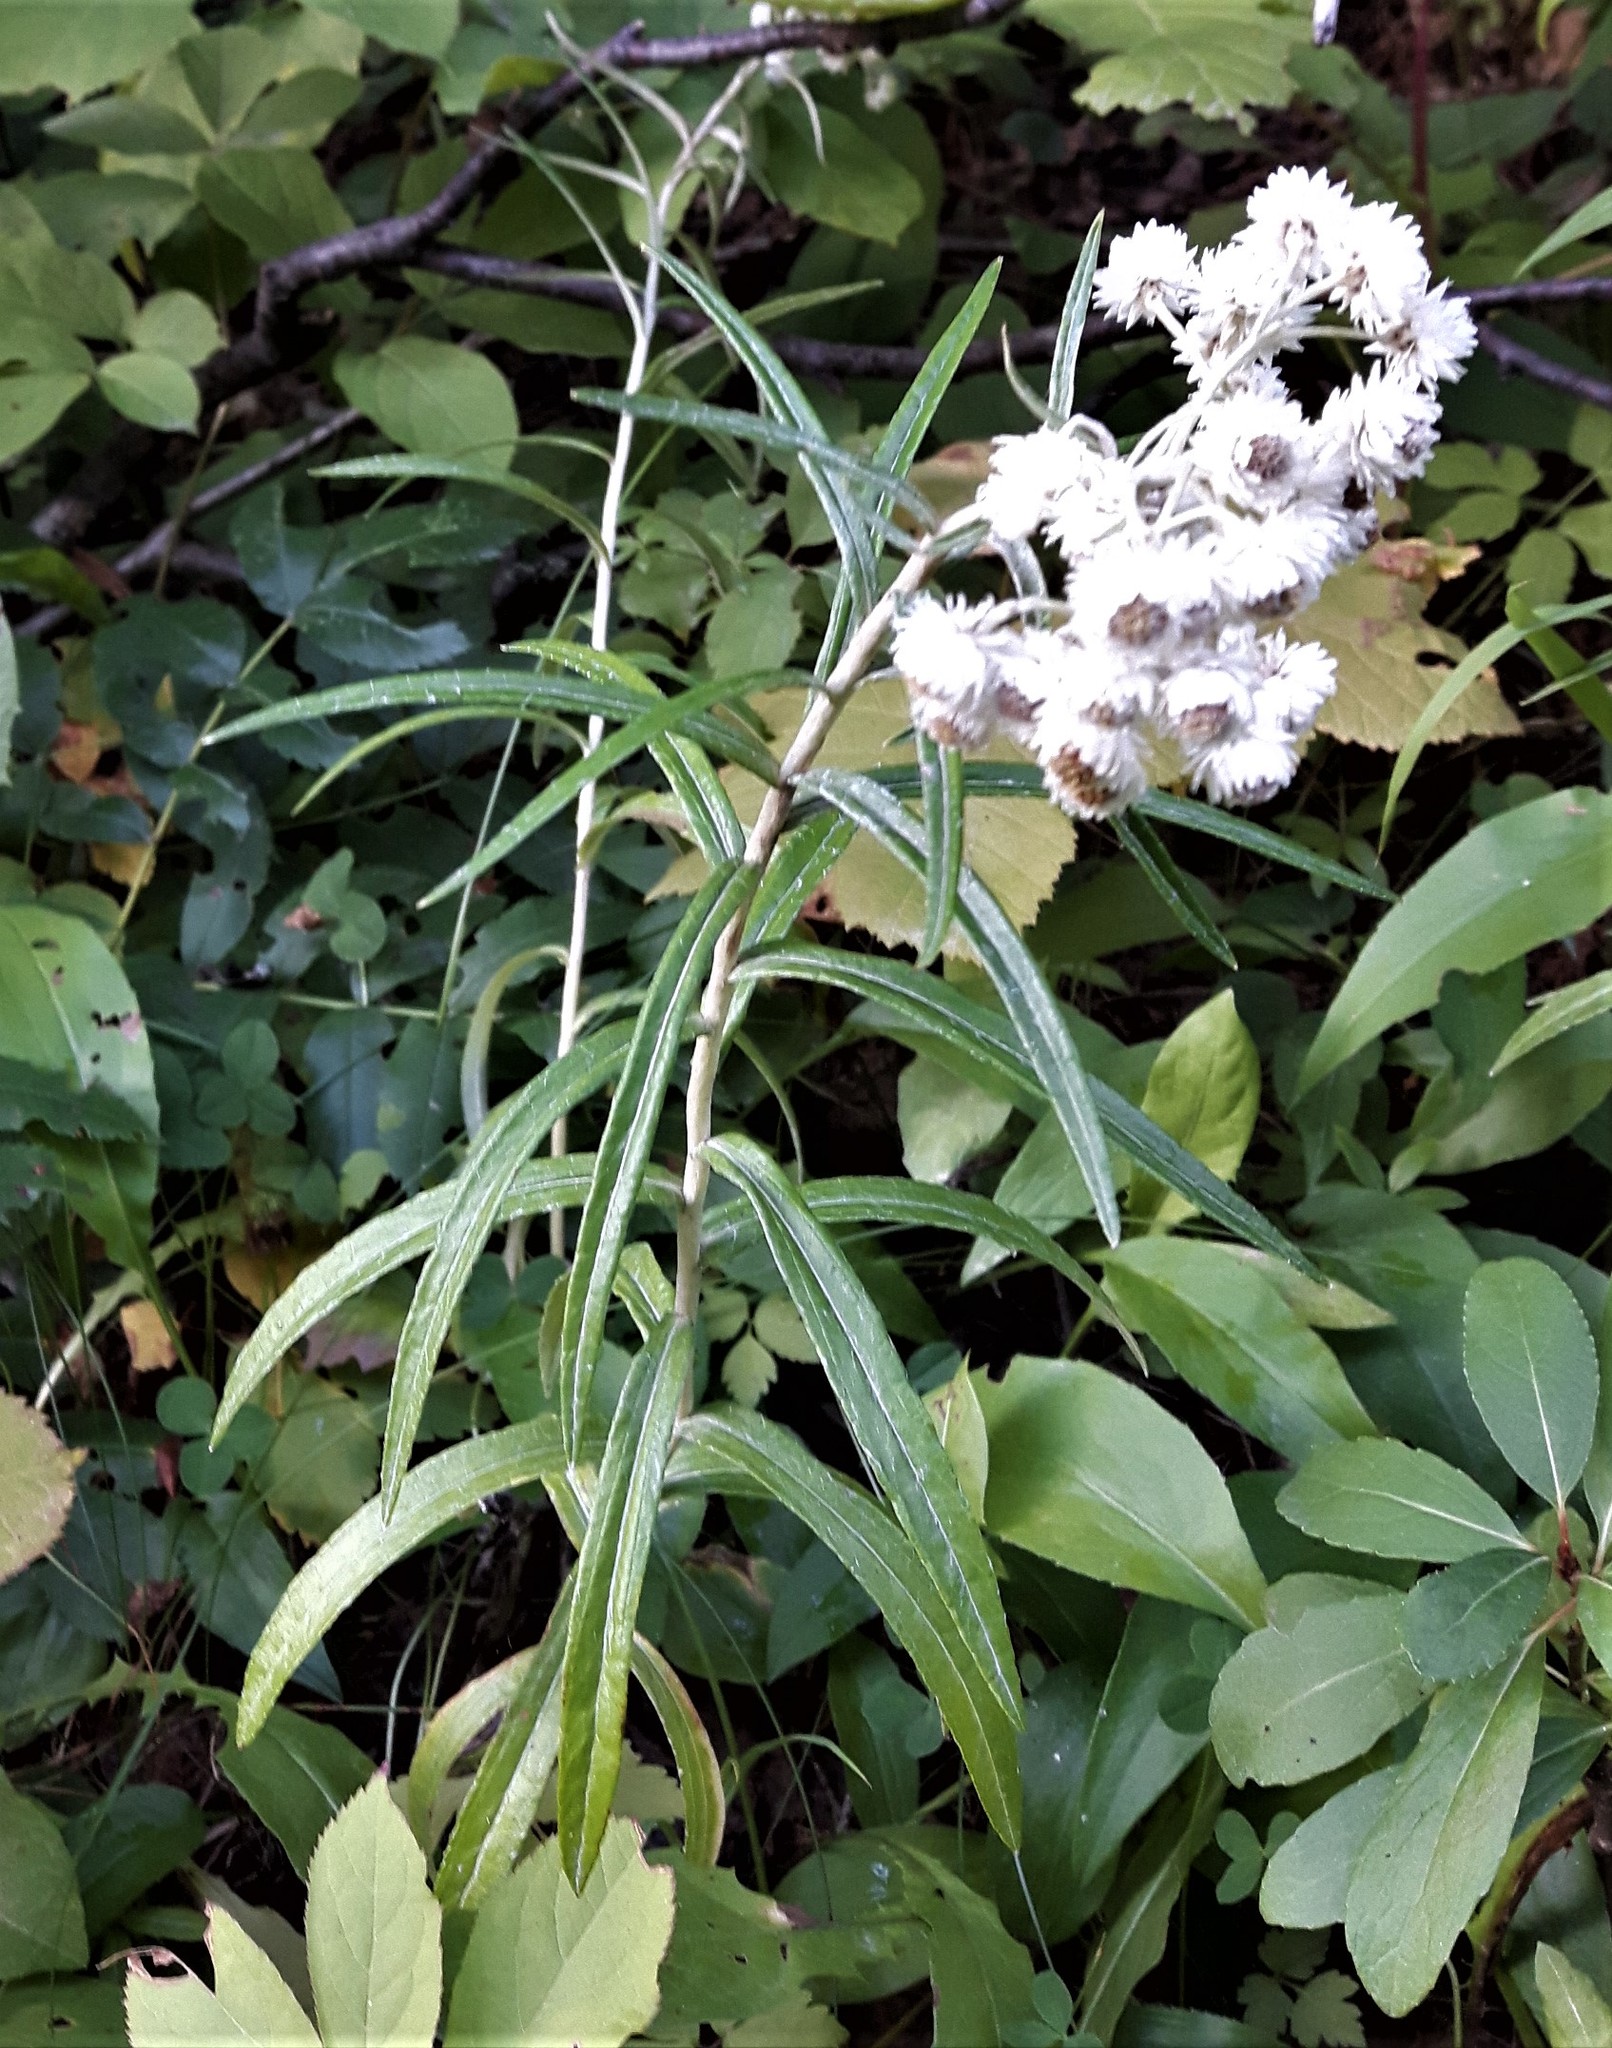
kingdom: Plantae
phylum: Tracheophyta
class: Magnoliopsida
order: Asterales
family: Asteraceae
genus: Anaphalis
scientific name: Anaphalis margaritacea
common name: Pearly everlasting
